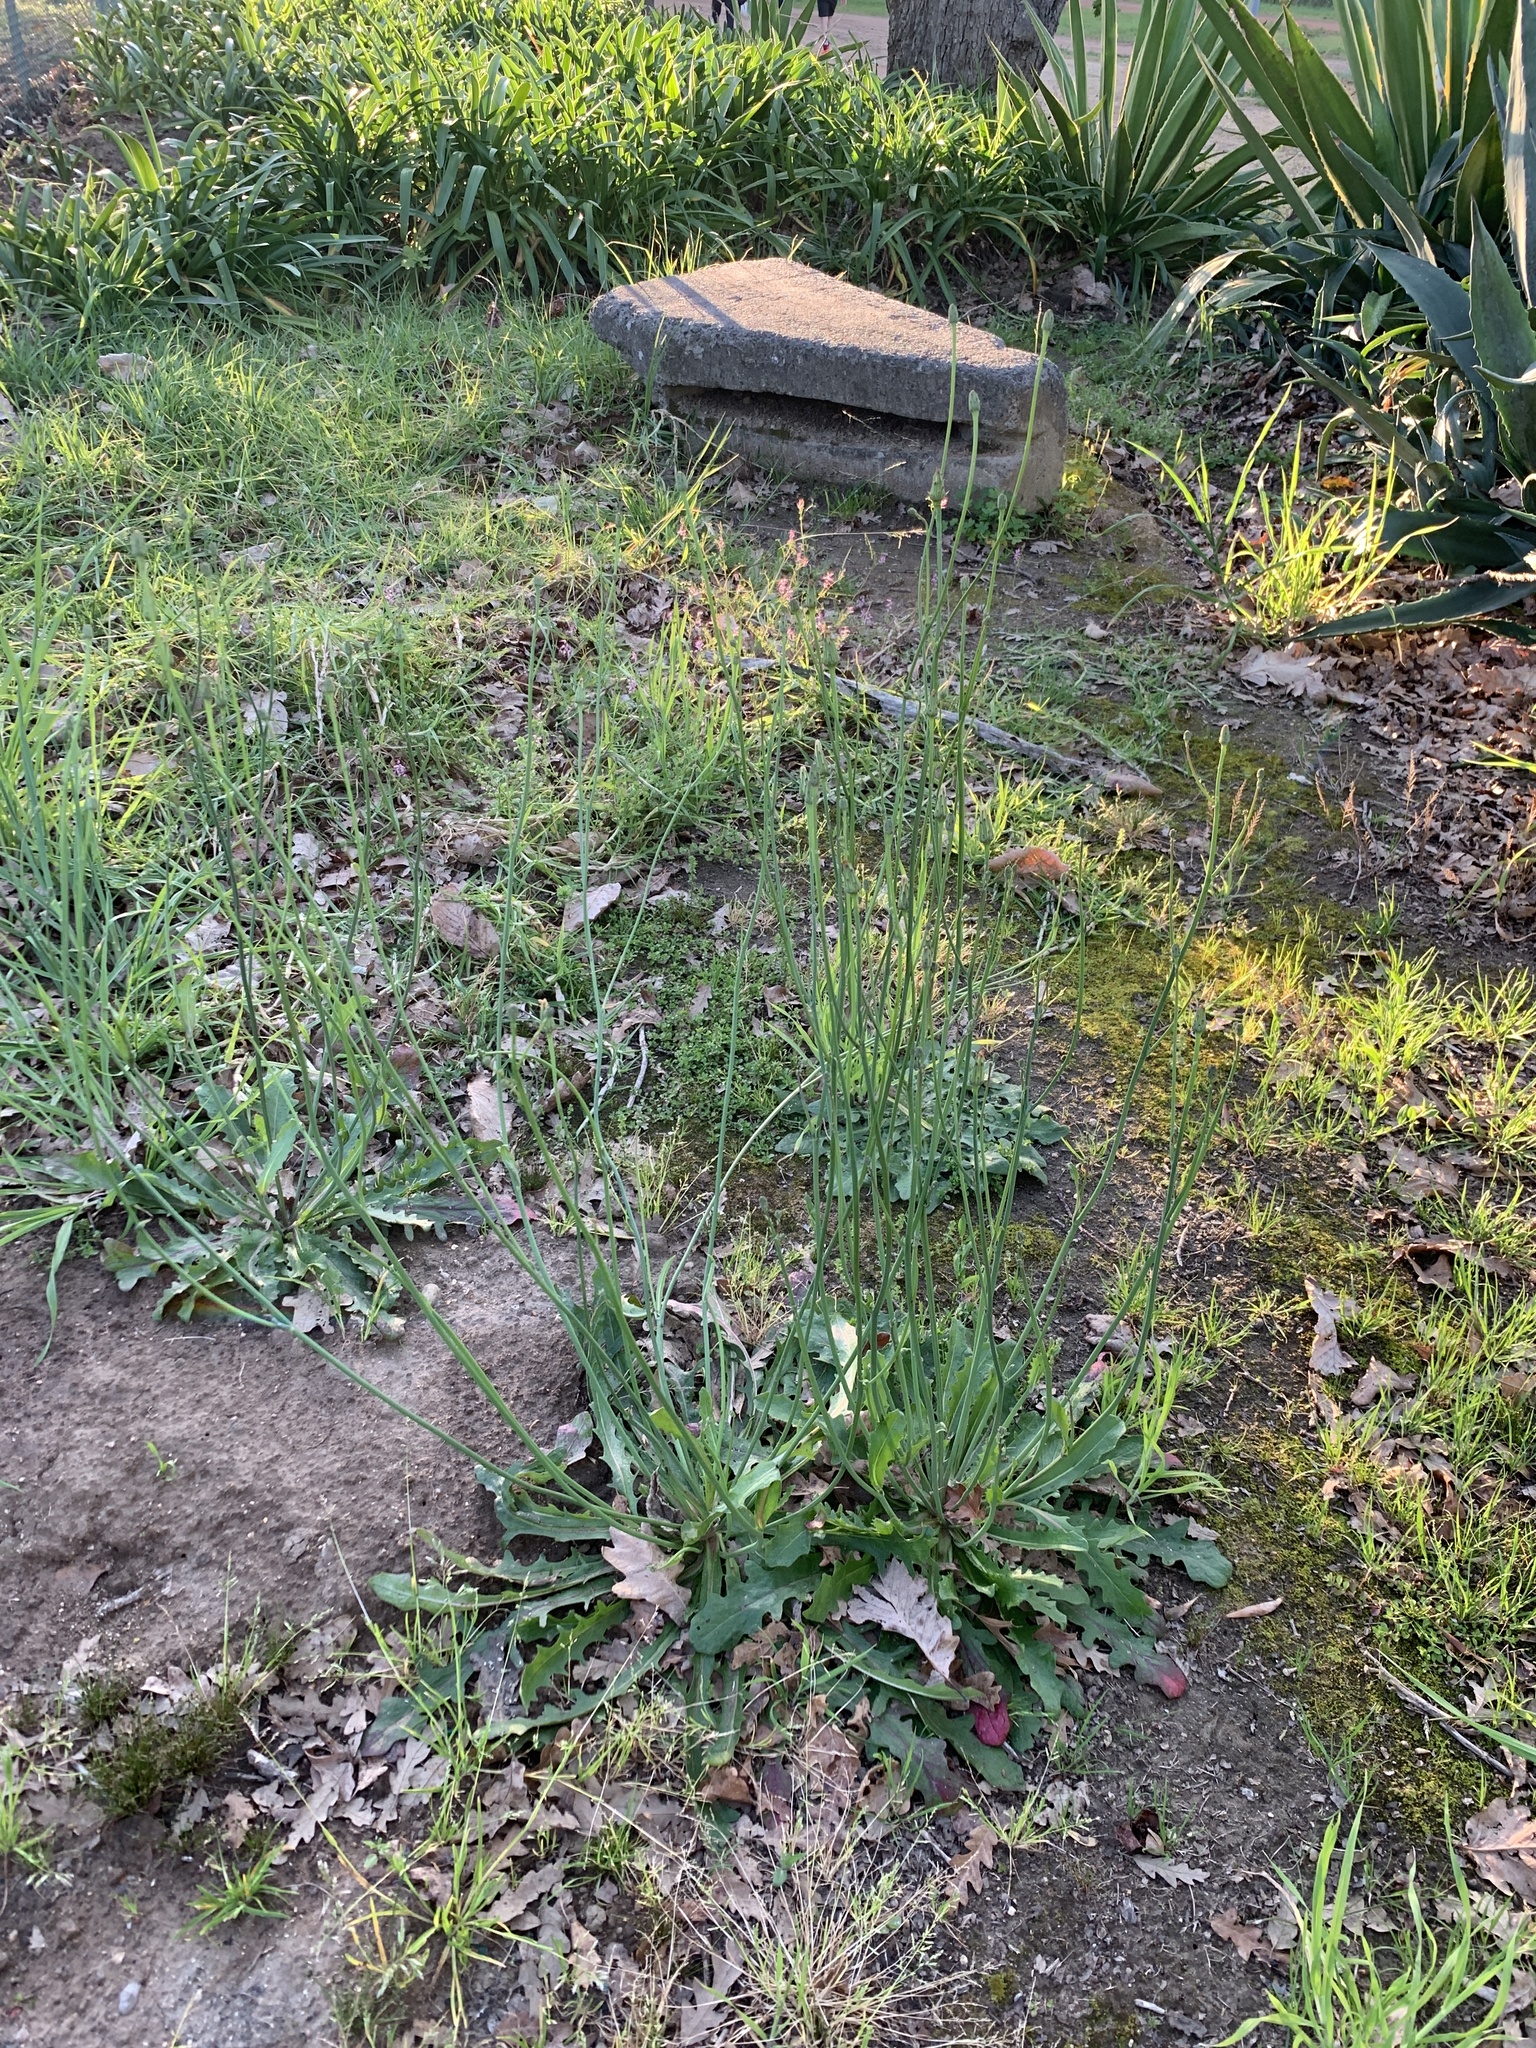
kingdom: Plantae
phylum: Tracheophyta
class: Magnoliopsida
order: Asterales
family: Asteraceae
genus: Hypochaeris
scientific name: Hypochaeris radicata
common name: Flatweed
